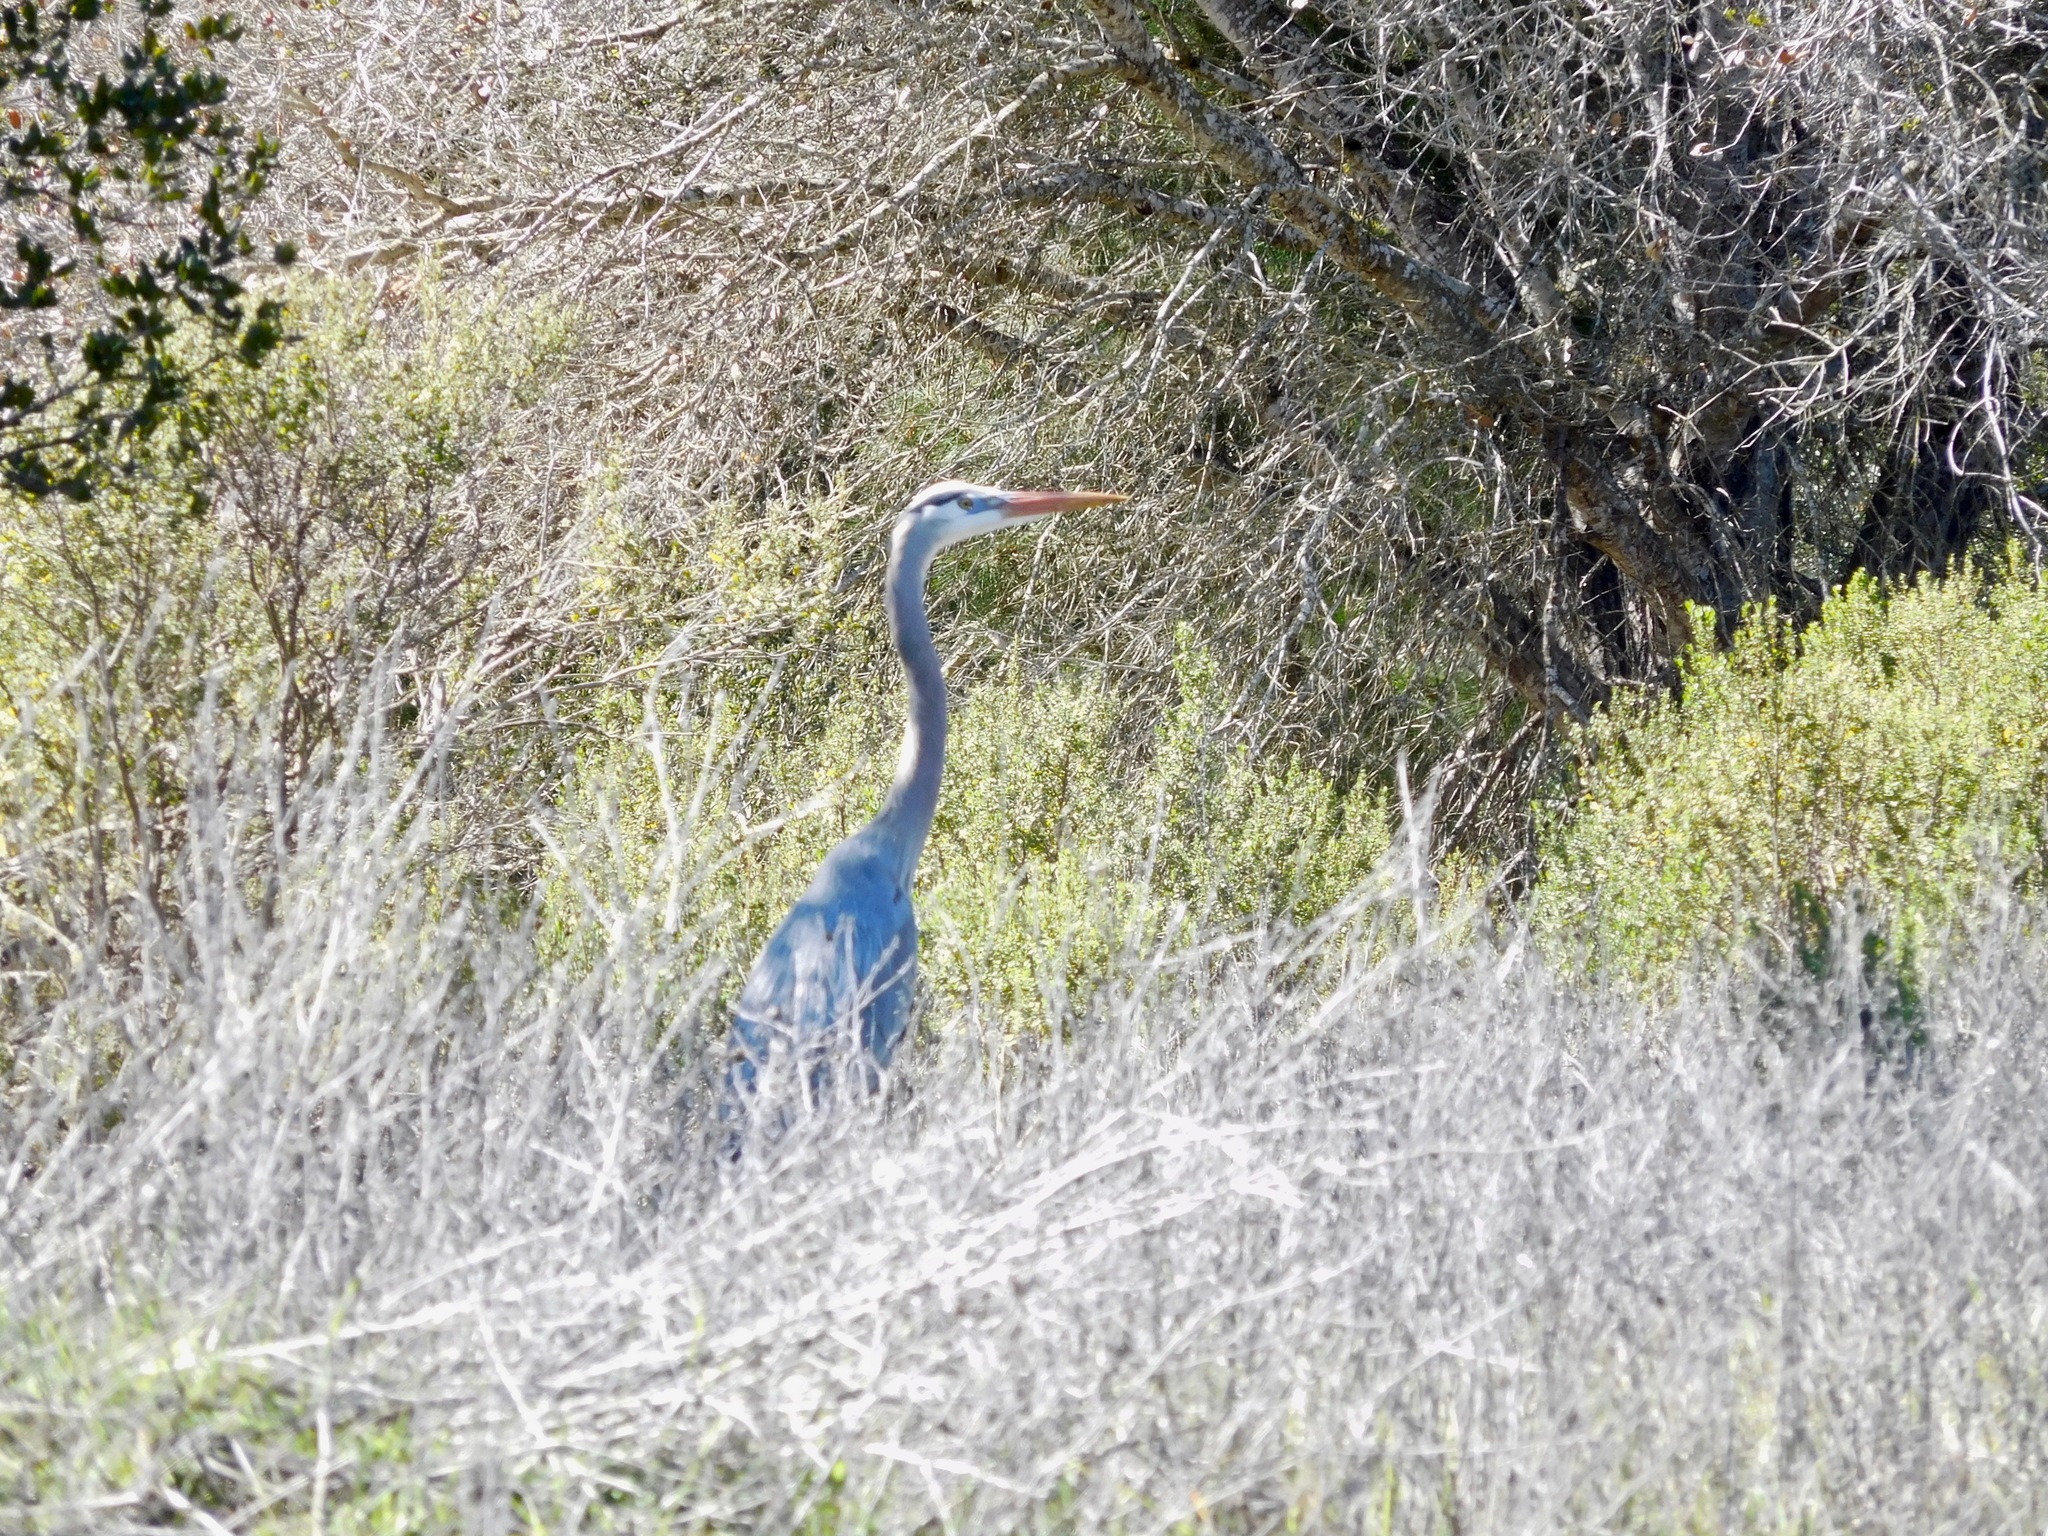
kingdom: Animalia
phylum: Chordata
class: Aves
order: Pelecaniformes
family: Ardeidae
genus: Ardea
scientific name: Ardea herodias
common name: Great blue heron
